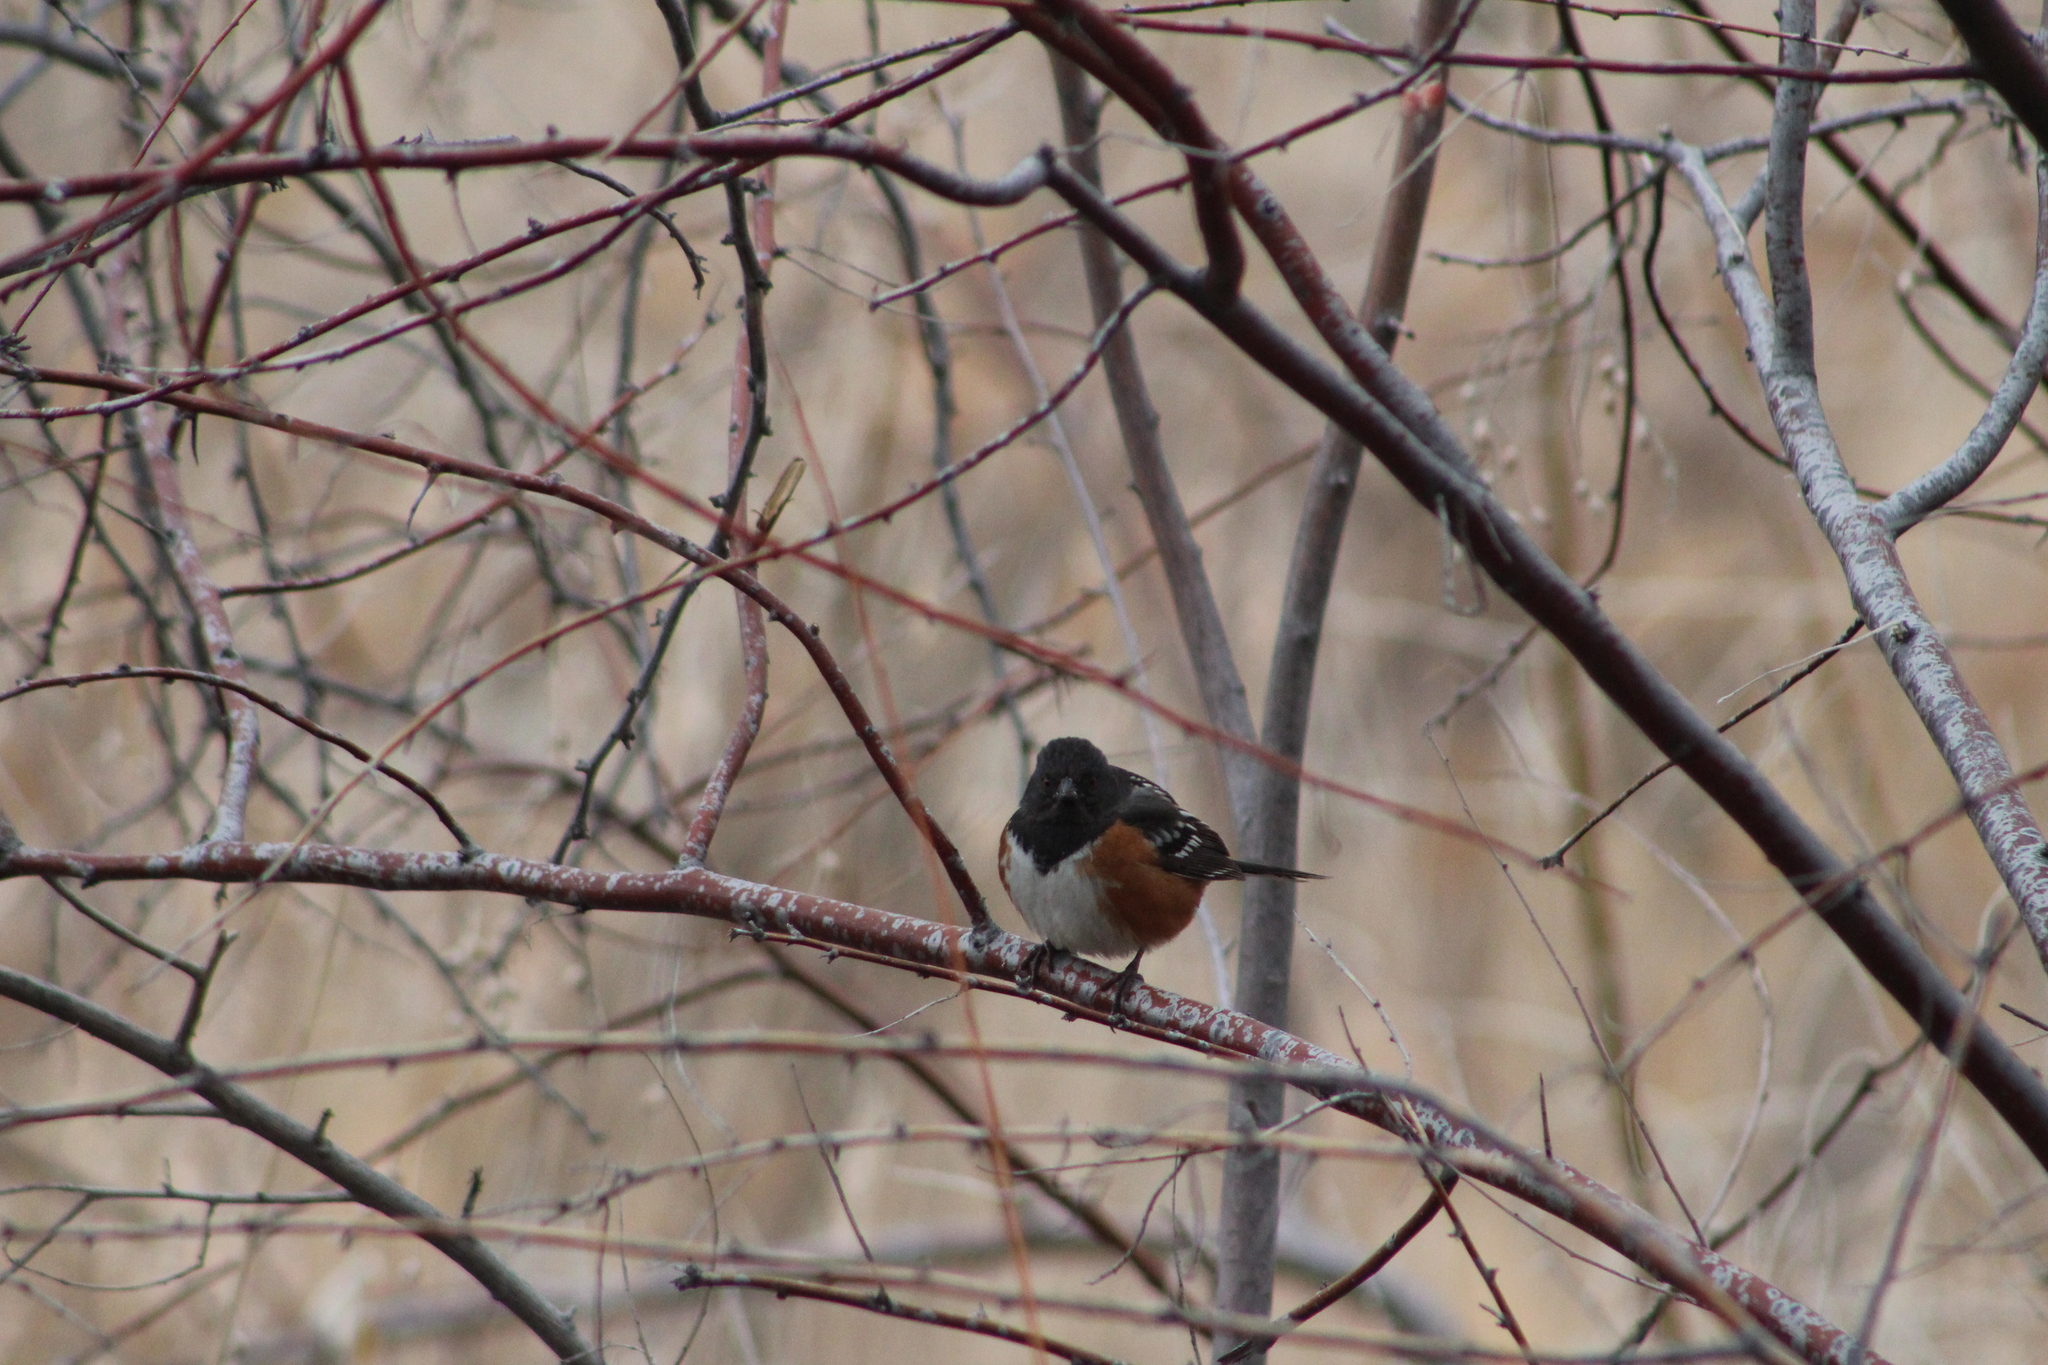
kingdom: Animalia
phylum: Chordata
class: Aves
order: Passeriformes
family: Passerellidae
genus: Pipilo
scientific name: Pipilo maculatus
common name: Spotted towhee
